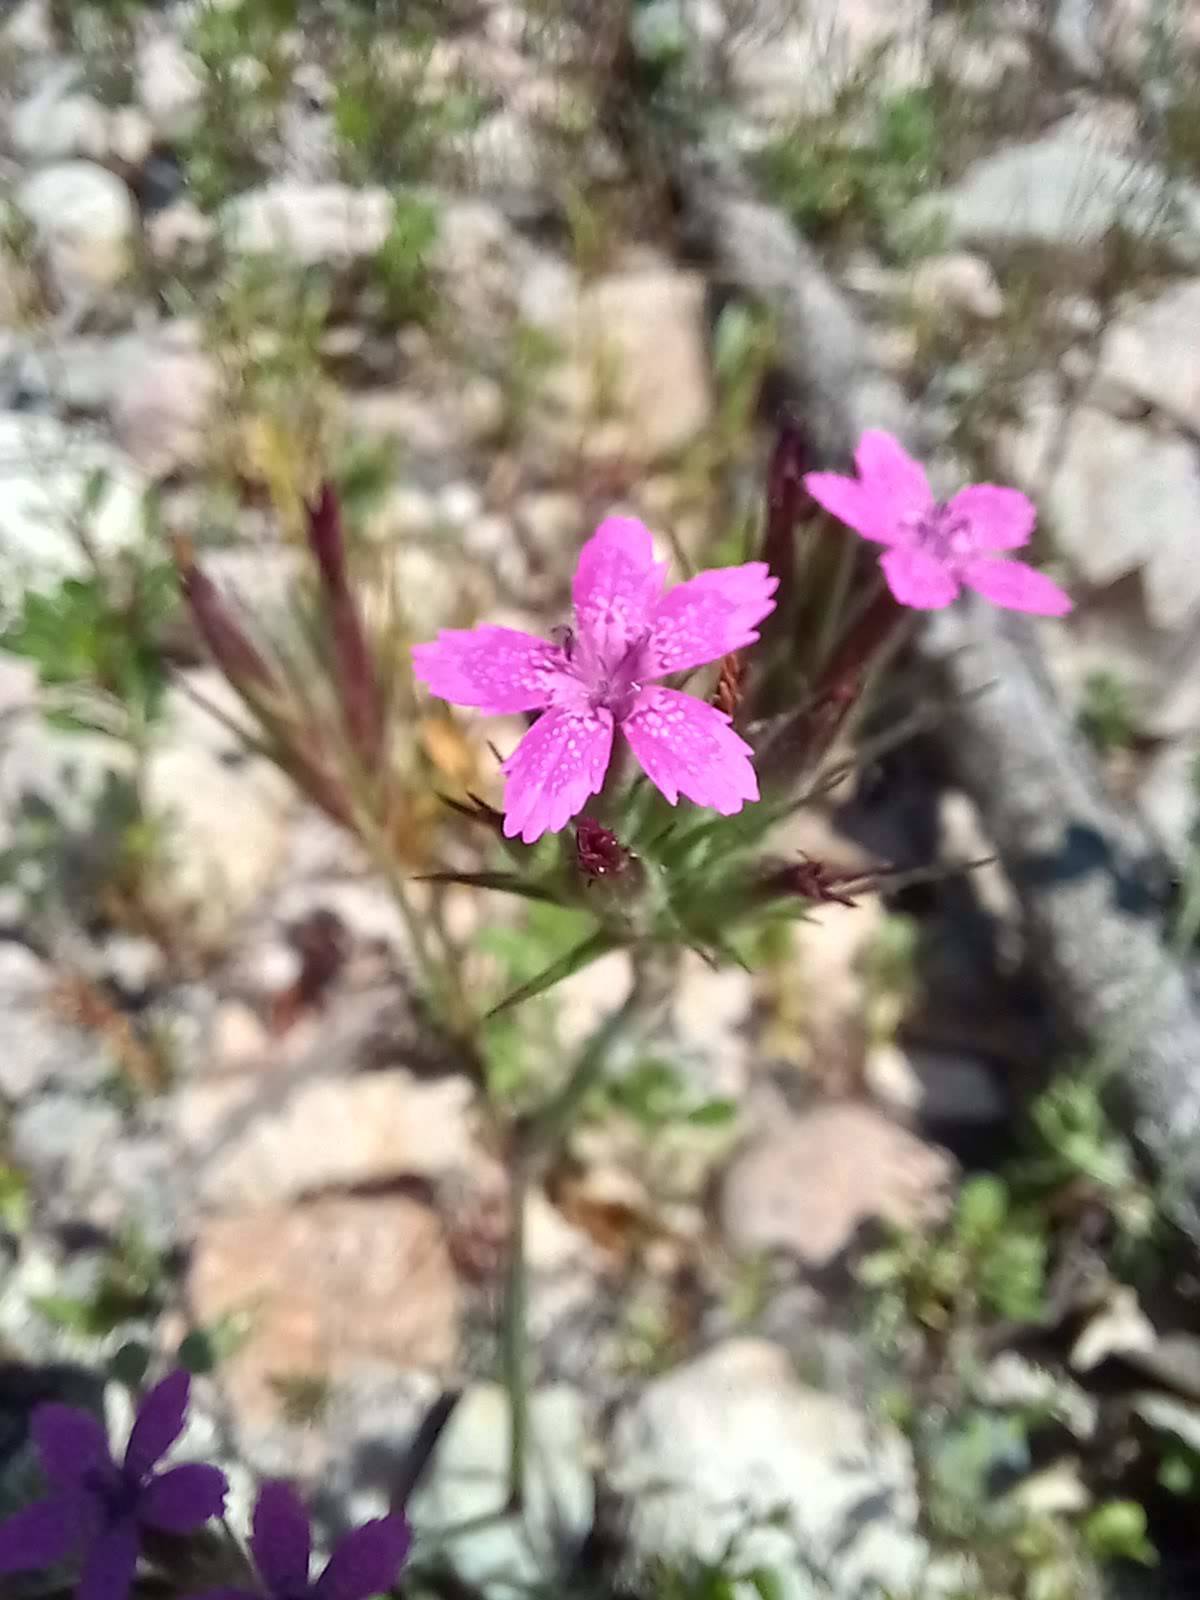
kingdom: Plantae
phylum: Tracheophyta
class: Magnoliopsida
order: Caryophyllales
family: Caryophyllaceae
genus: Dianthus
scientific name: Dianthus armeria
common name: Deptford pink
